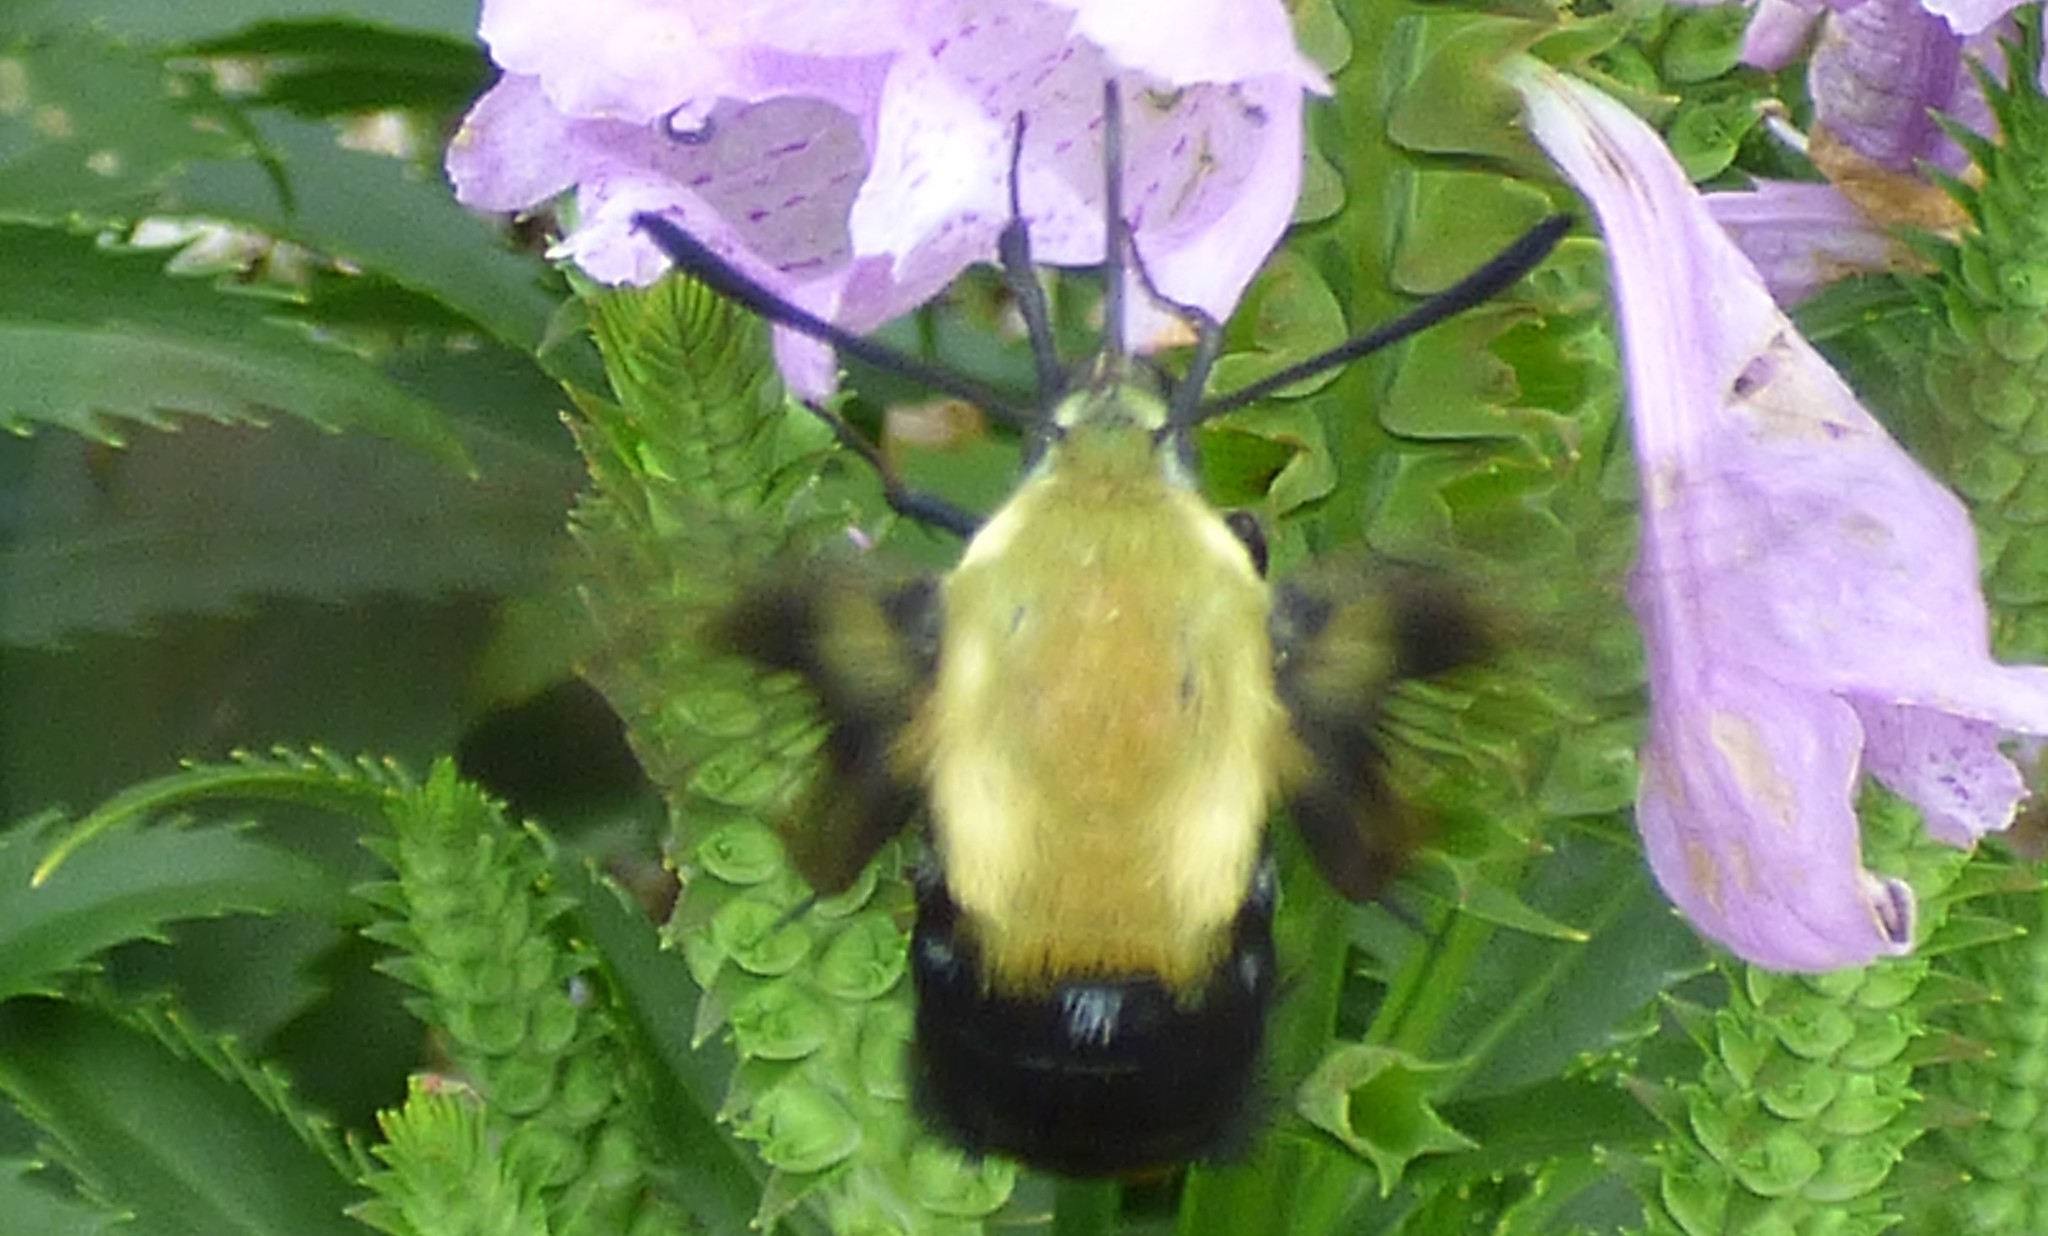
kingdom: Animalia
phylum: Arthropoda
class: Insecta
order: Lepidoptera
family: Sphingidae
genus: Hemaris
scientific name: Hemaris diffinis
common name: Bumblebee moth
